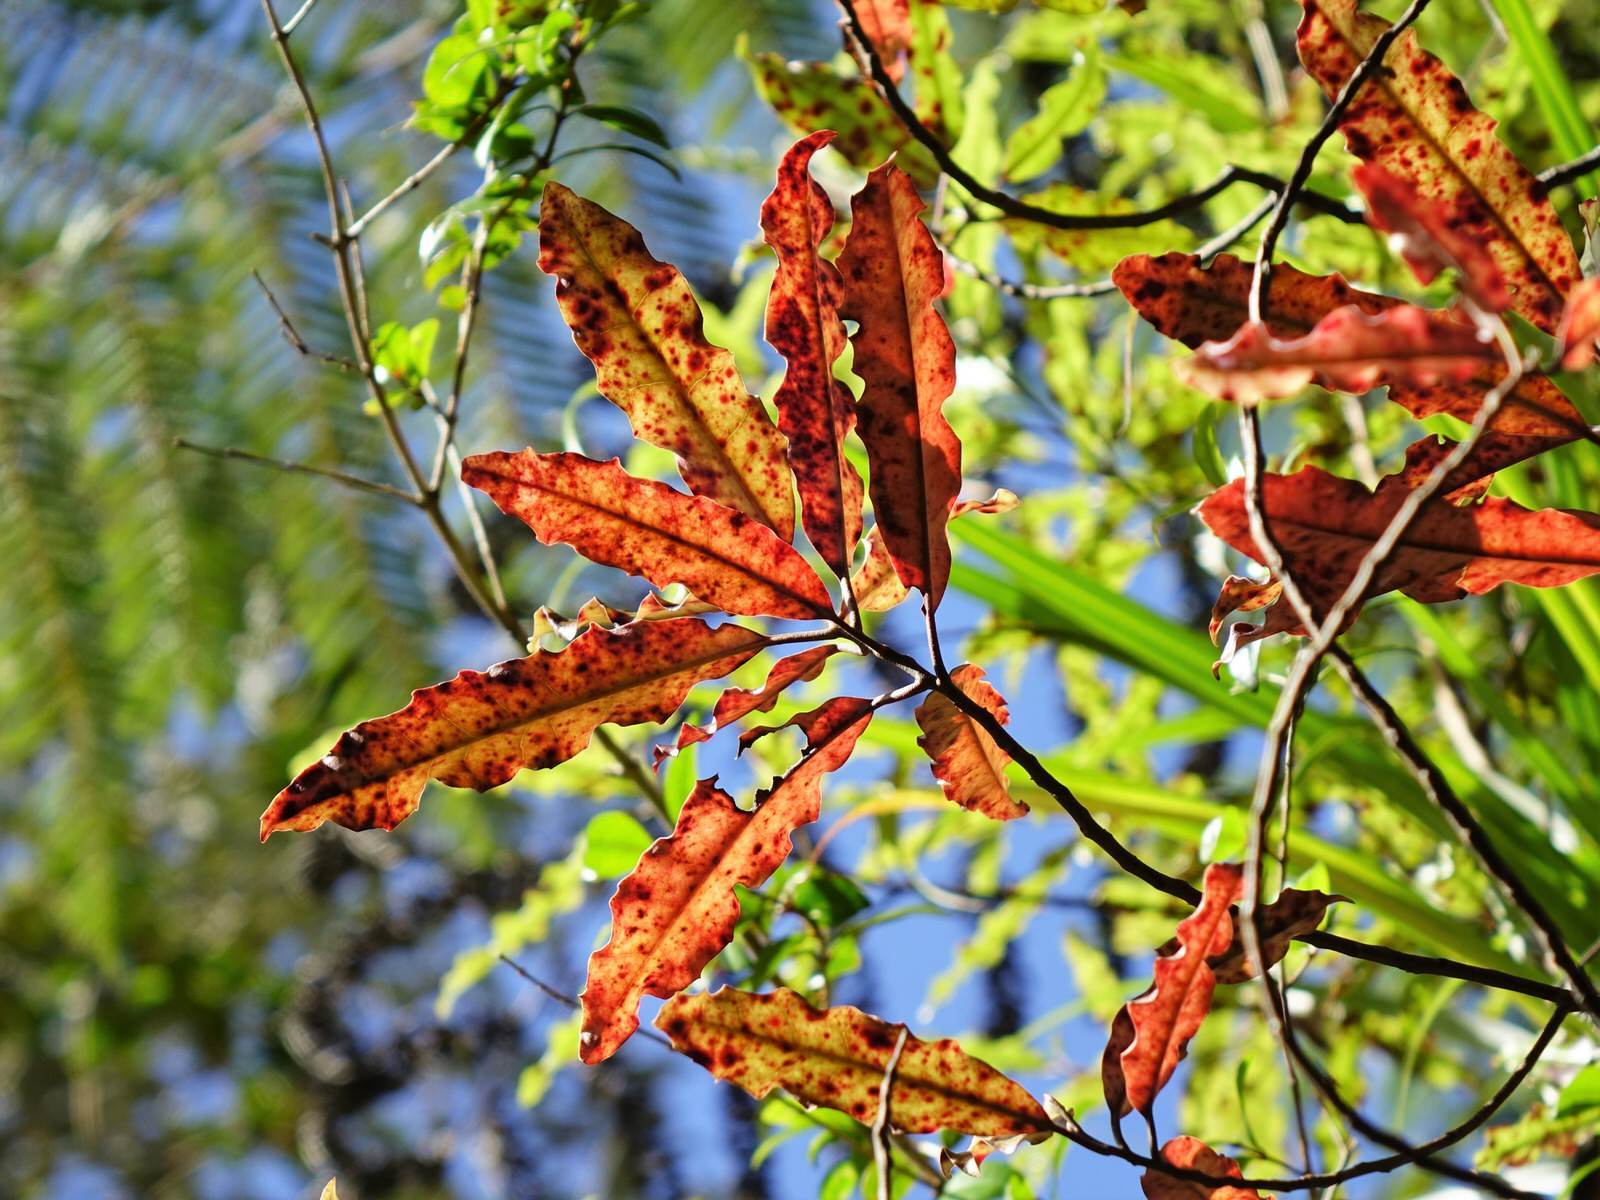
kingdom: Plantae
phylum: Tracheophyta
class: Magnoliopsida
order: Paracryphiales
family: Paracryphiaceae
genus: Quintinia
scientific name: Quintinia serrata
